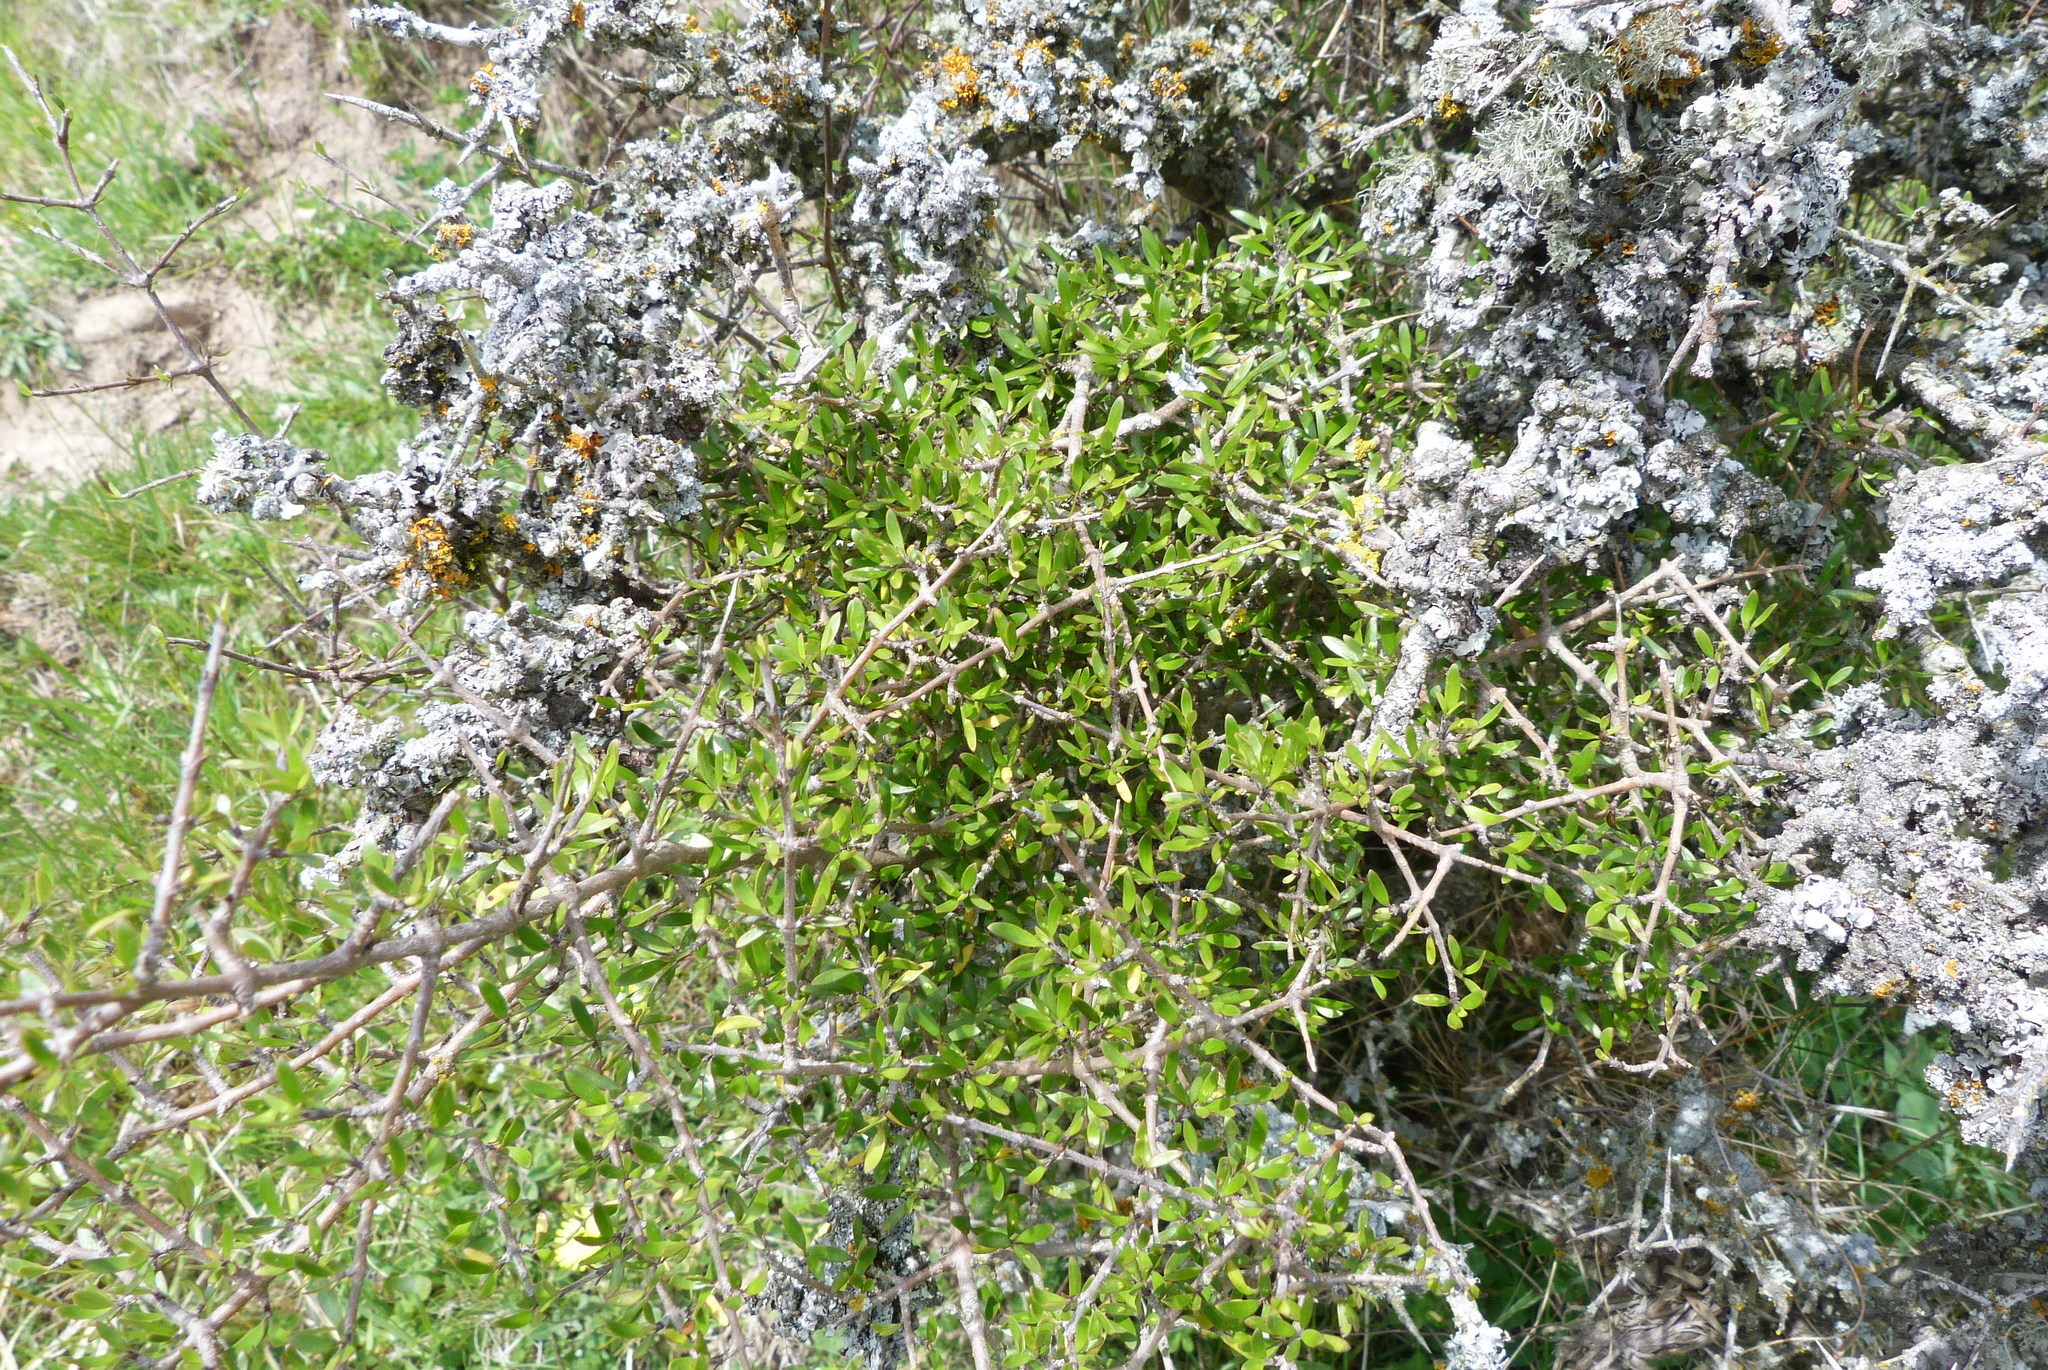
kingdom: Plantae
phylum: Tracheophyta
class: Magnoliopsida
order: Gentianales
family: Rubiaceae
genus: Coprosma
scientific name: Coprosma propinqua
